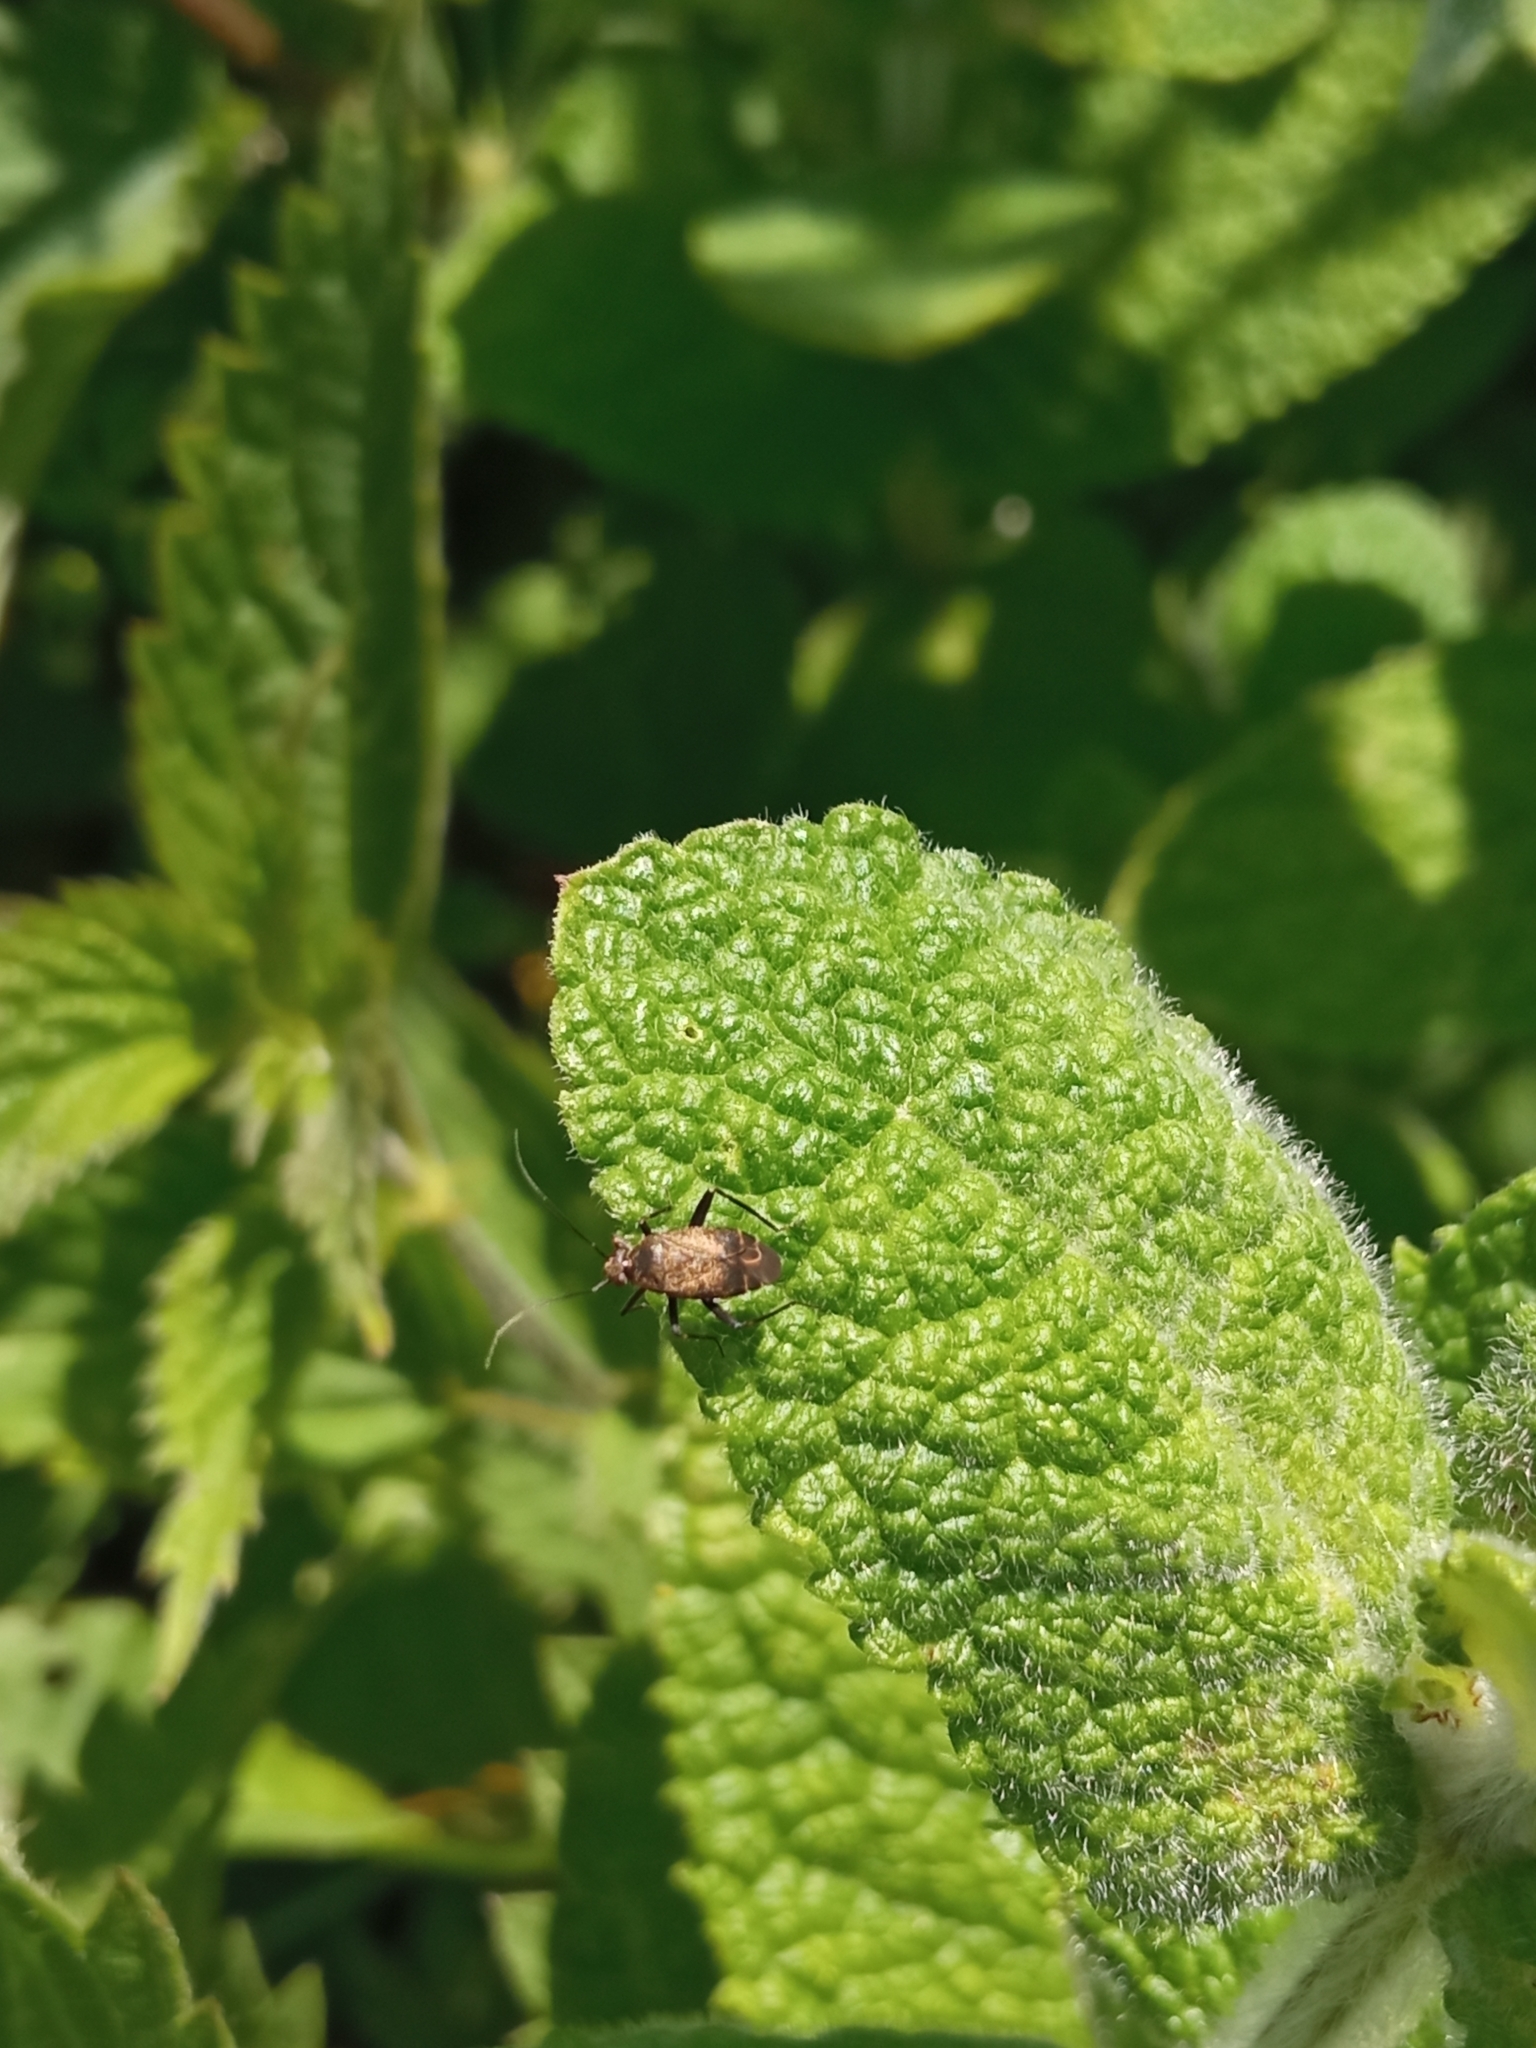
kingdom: Animalia
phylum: Arthropoda
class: Insecta
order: Hemiptera
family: Miridae
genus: Polymerus
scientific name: Polymerus nigritus
